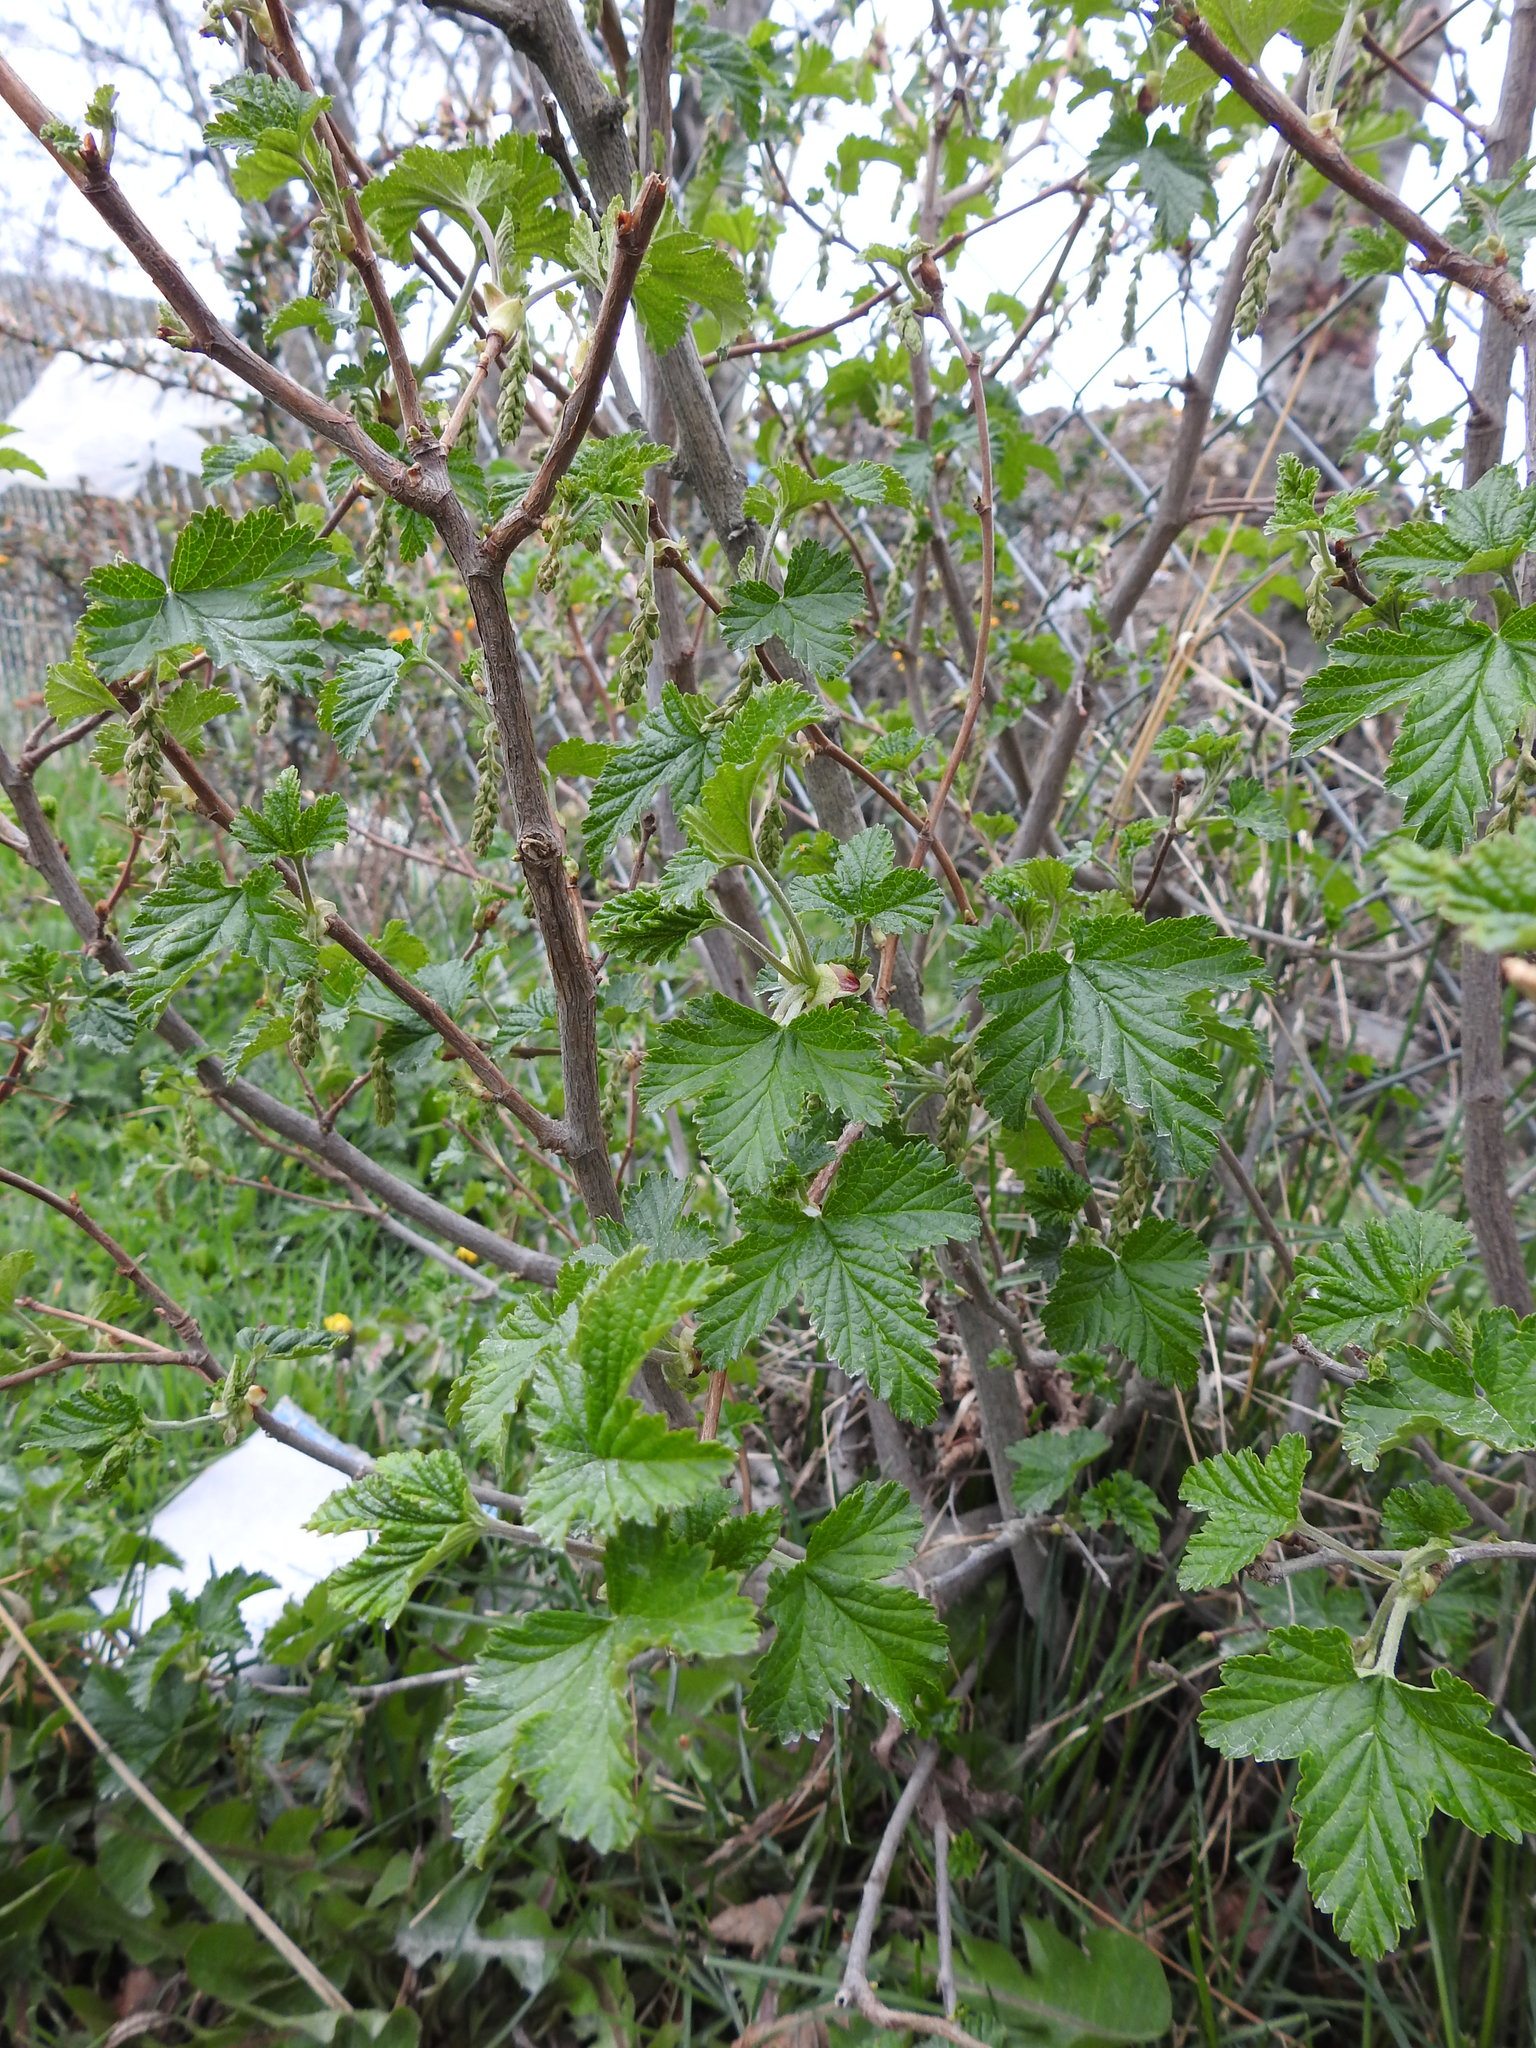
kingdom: Plantae
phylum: Tracheophyta
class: Magnoliopsida
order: Saxifragales
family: Grossulariaceae
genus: Ribes
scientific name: Ribes magellanicum
